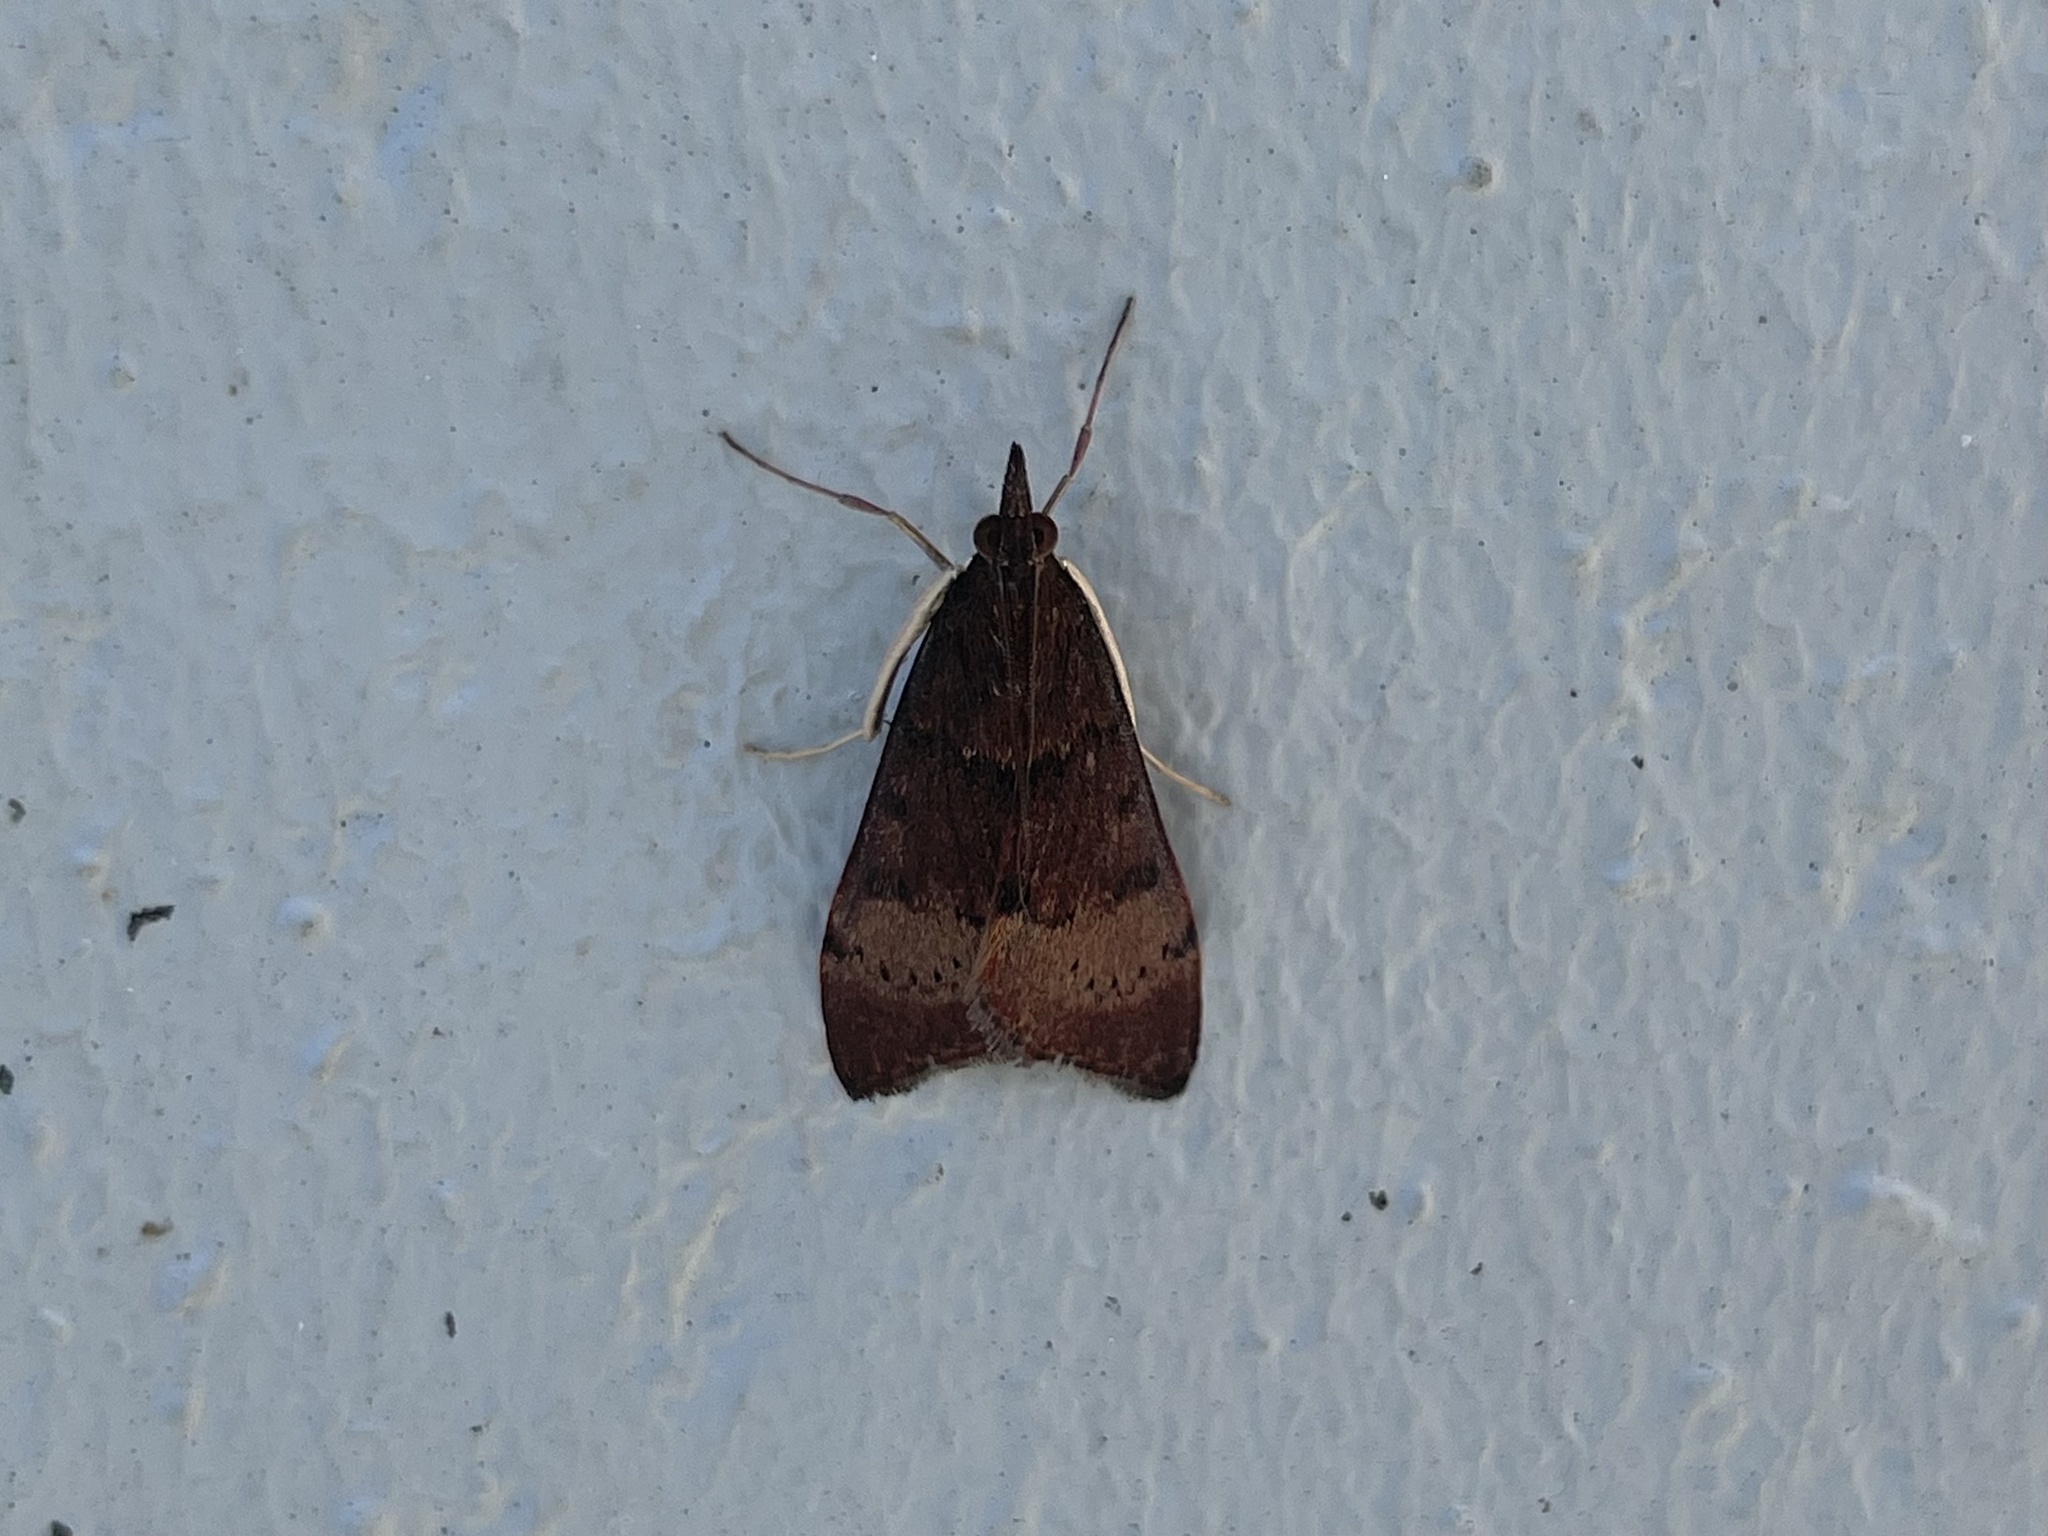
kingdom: Animalia
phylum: Arthropoda
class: Insecta
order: Lepidoptera
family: Crambidae
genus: Uresiphita
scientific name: Uresiphita ornithopteralis
